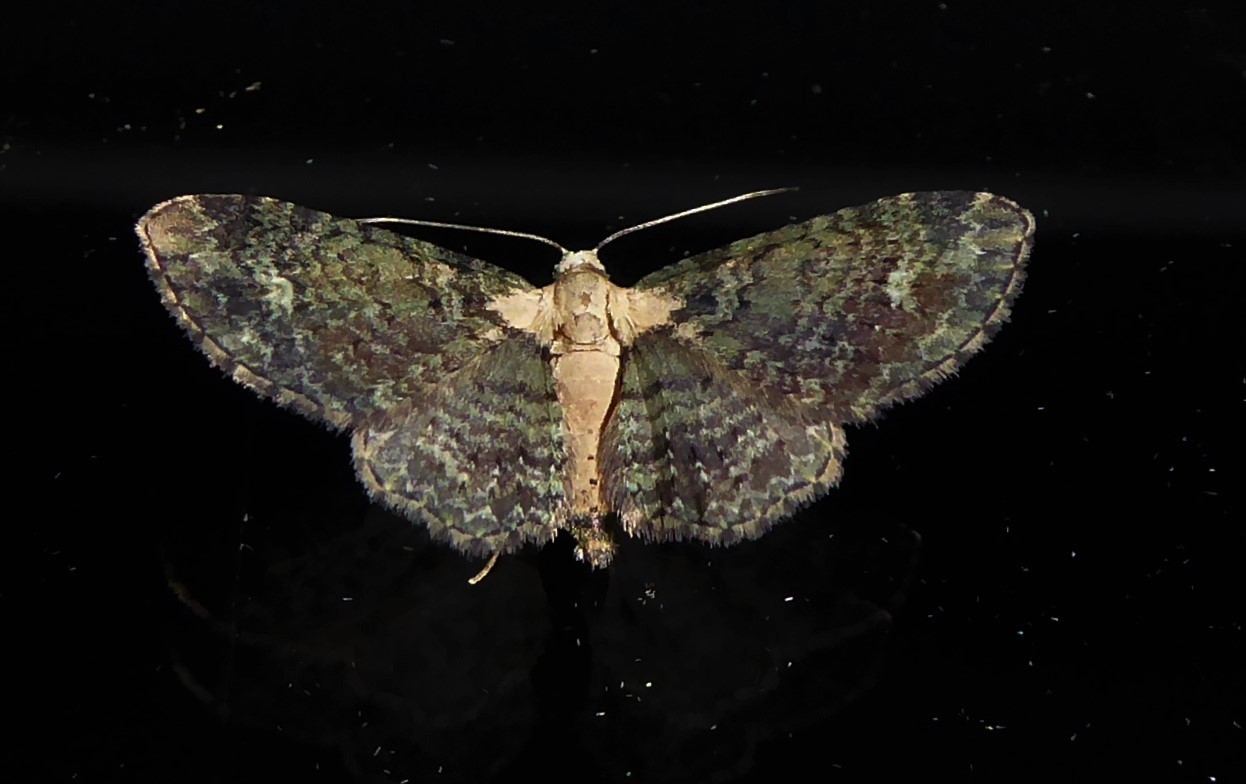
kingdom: Animalia
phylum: Arthropoda
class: Insecta
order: Lepidoptera
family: Geometridae
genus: Pasiphilodes
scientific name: Pasiphilodes testulata
